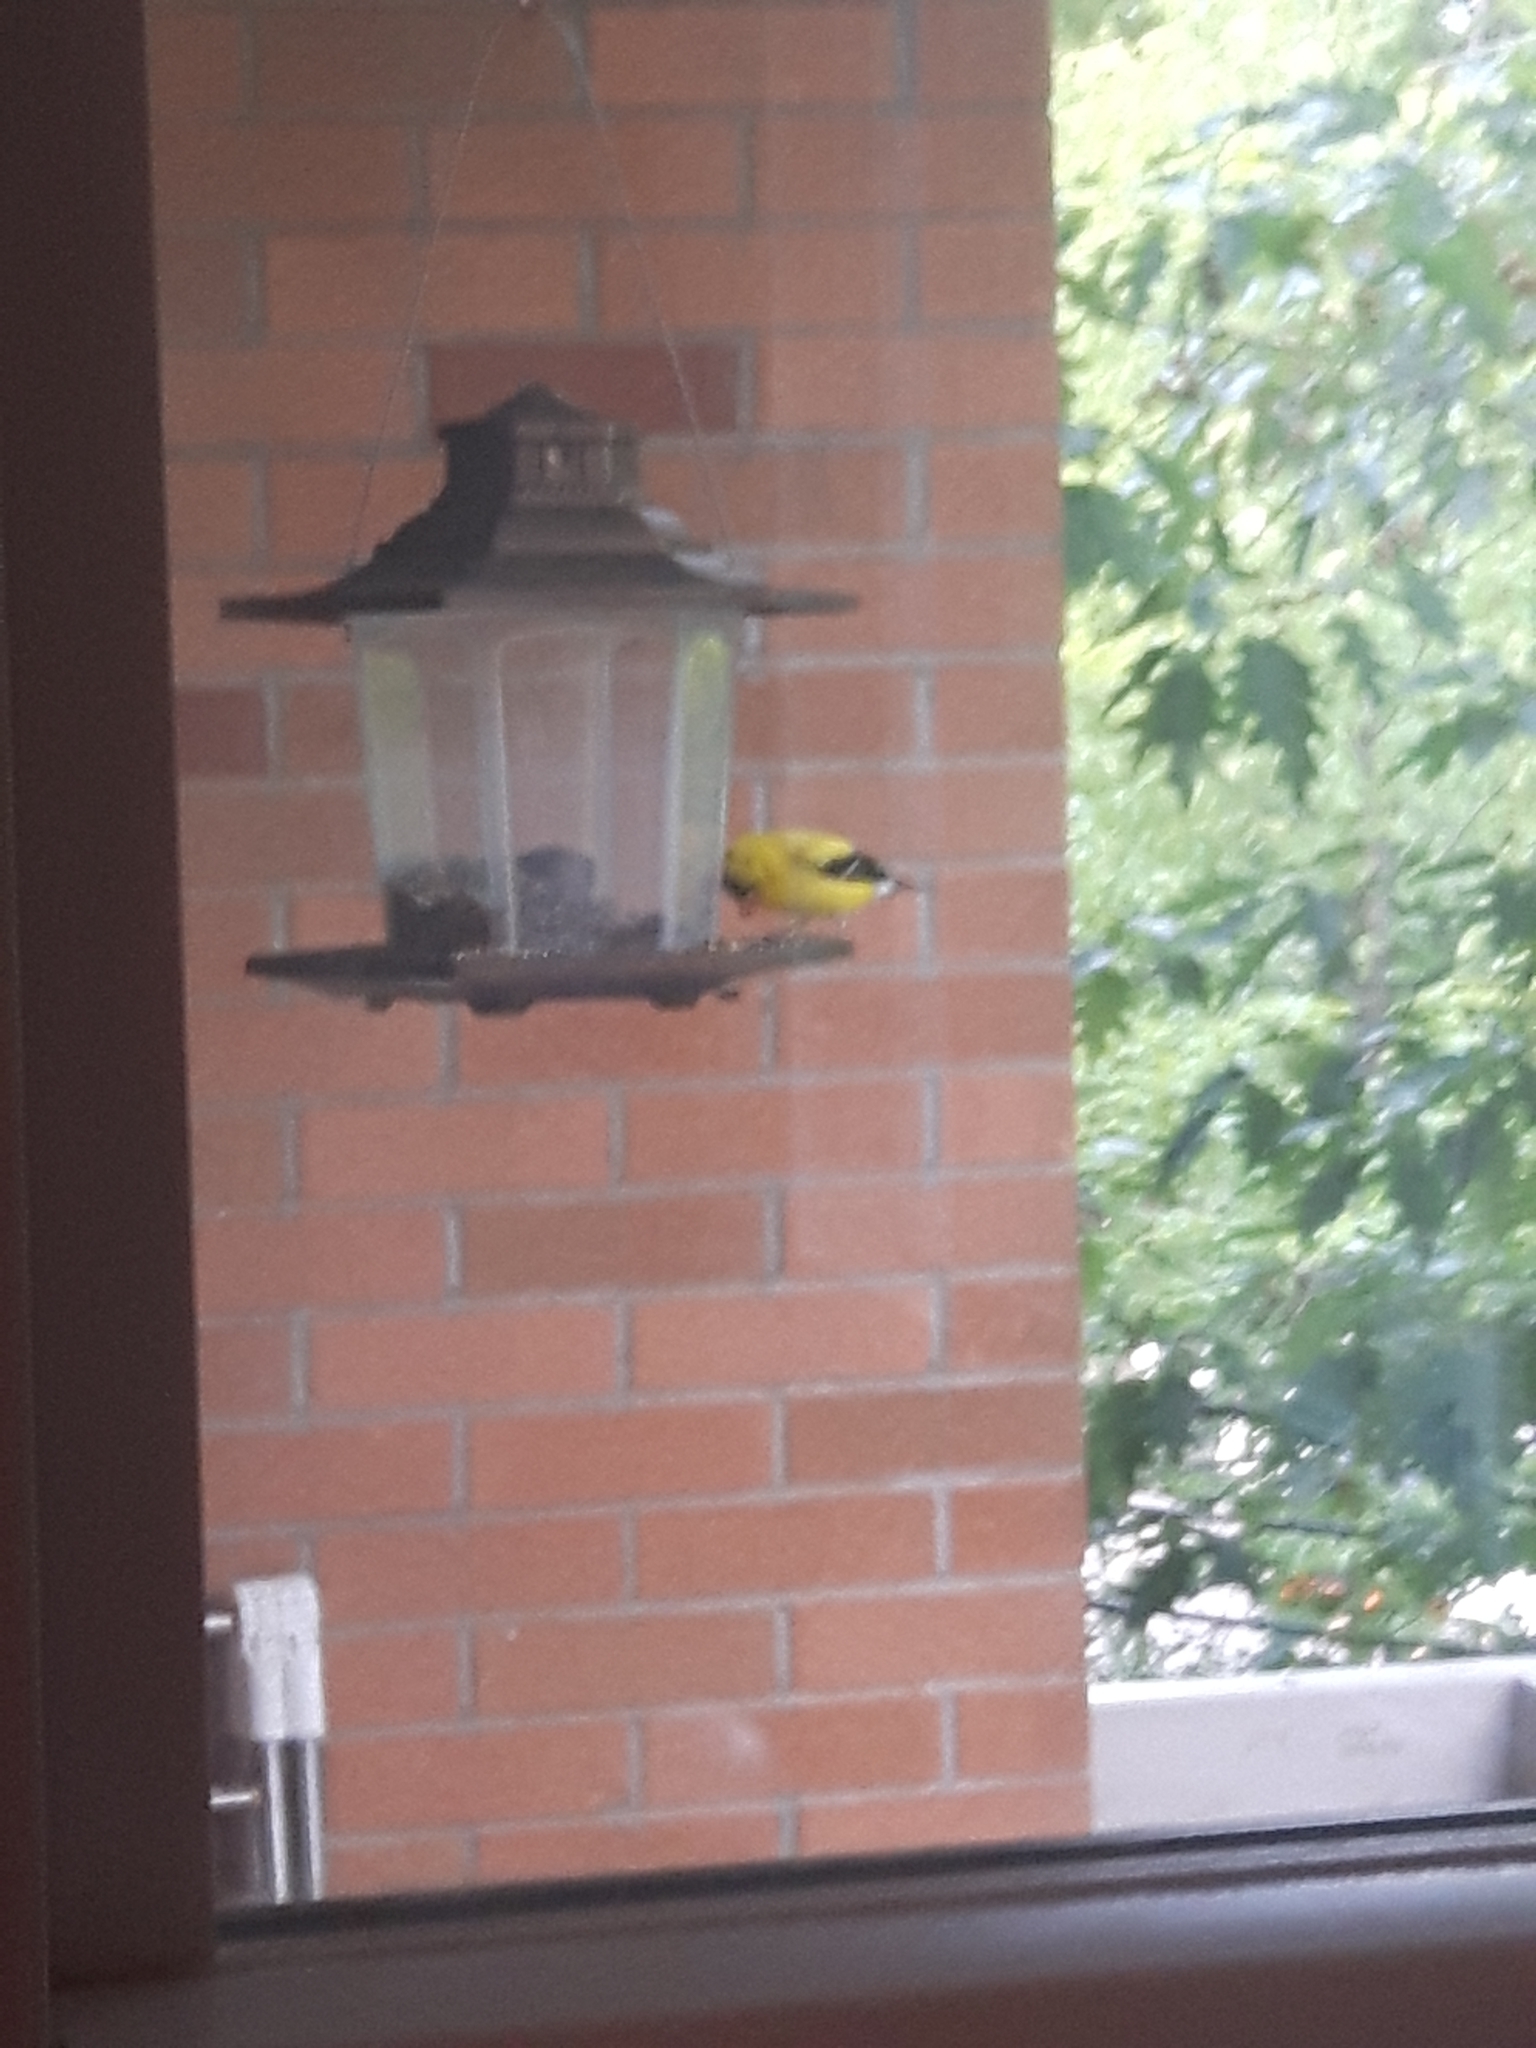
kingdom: Animalia
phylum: Chordata
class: Aves
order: Passeriformes
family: Fringillidae
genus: Spinus
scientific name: Spinus tristis
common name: American goldfinch
